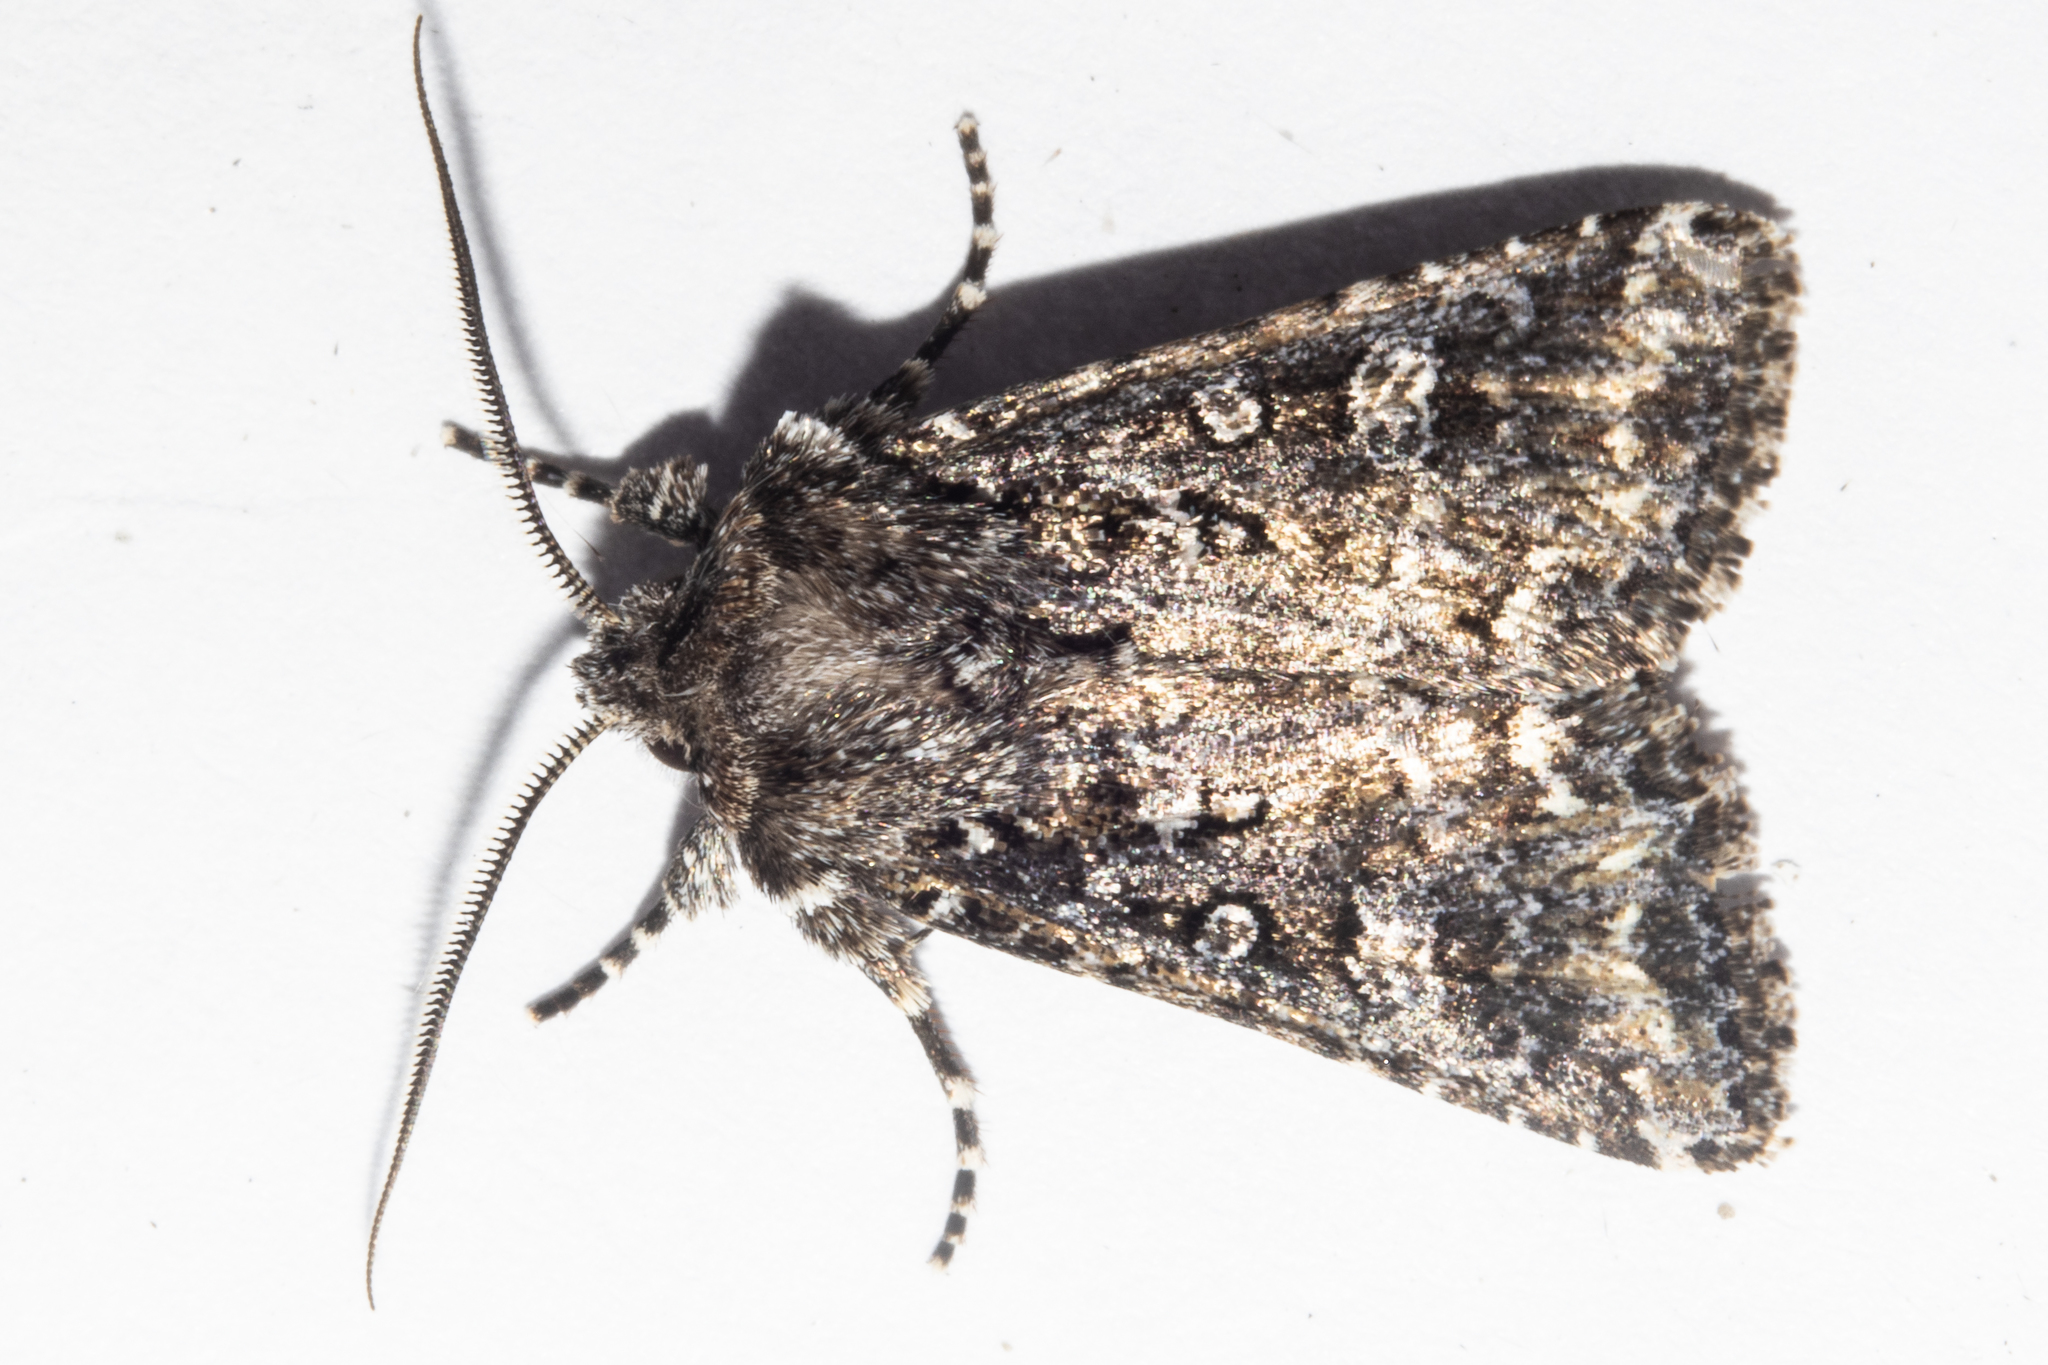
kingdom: Animalia
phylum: Arthropoda
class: Insecta
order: Lepidoptera
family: Noctuidae
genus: Ichneutica
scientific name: Ichneutica lithias
